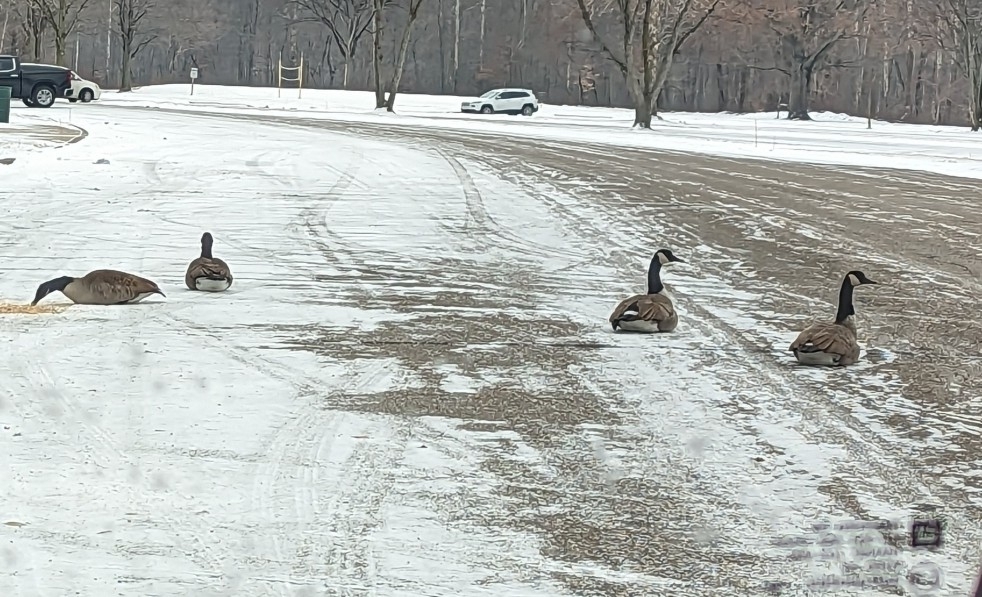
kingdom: Animalia
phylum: Chordata
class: Aves
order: Anseriformes
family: Anatidae
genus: Branta
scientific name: Branta canadensis
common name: Canada goose
